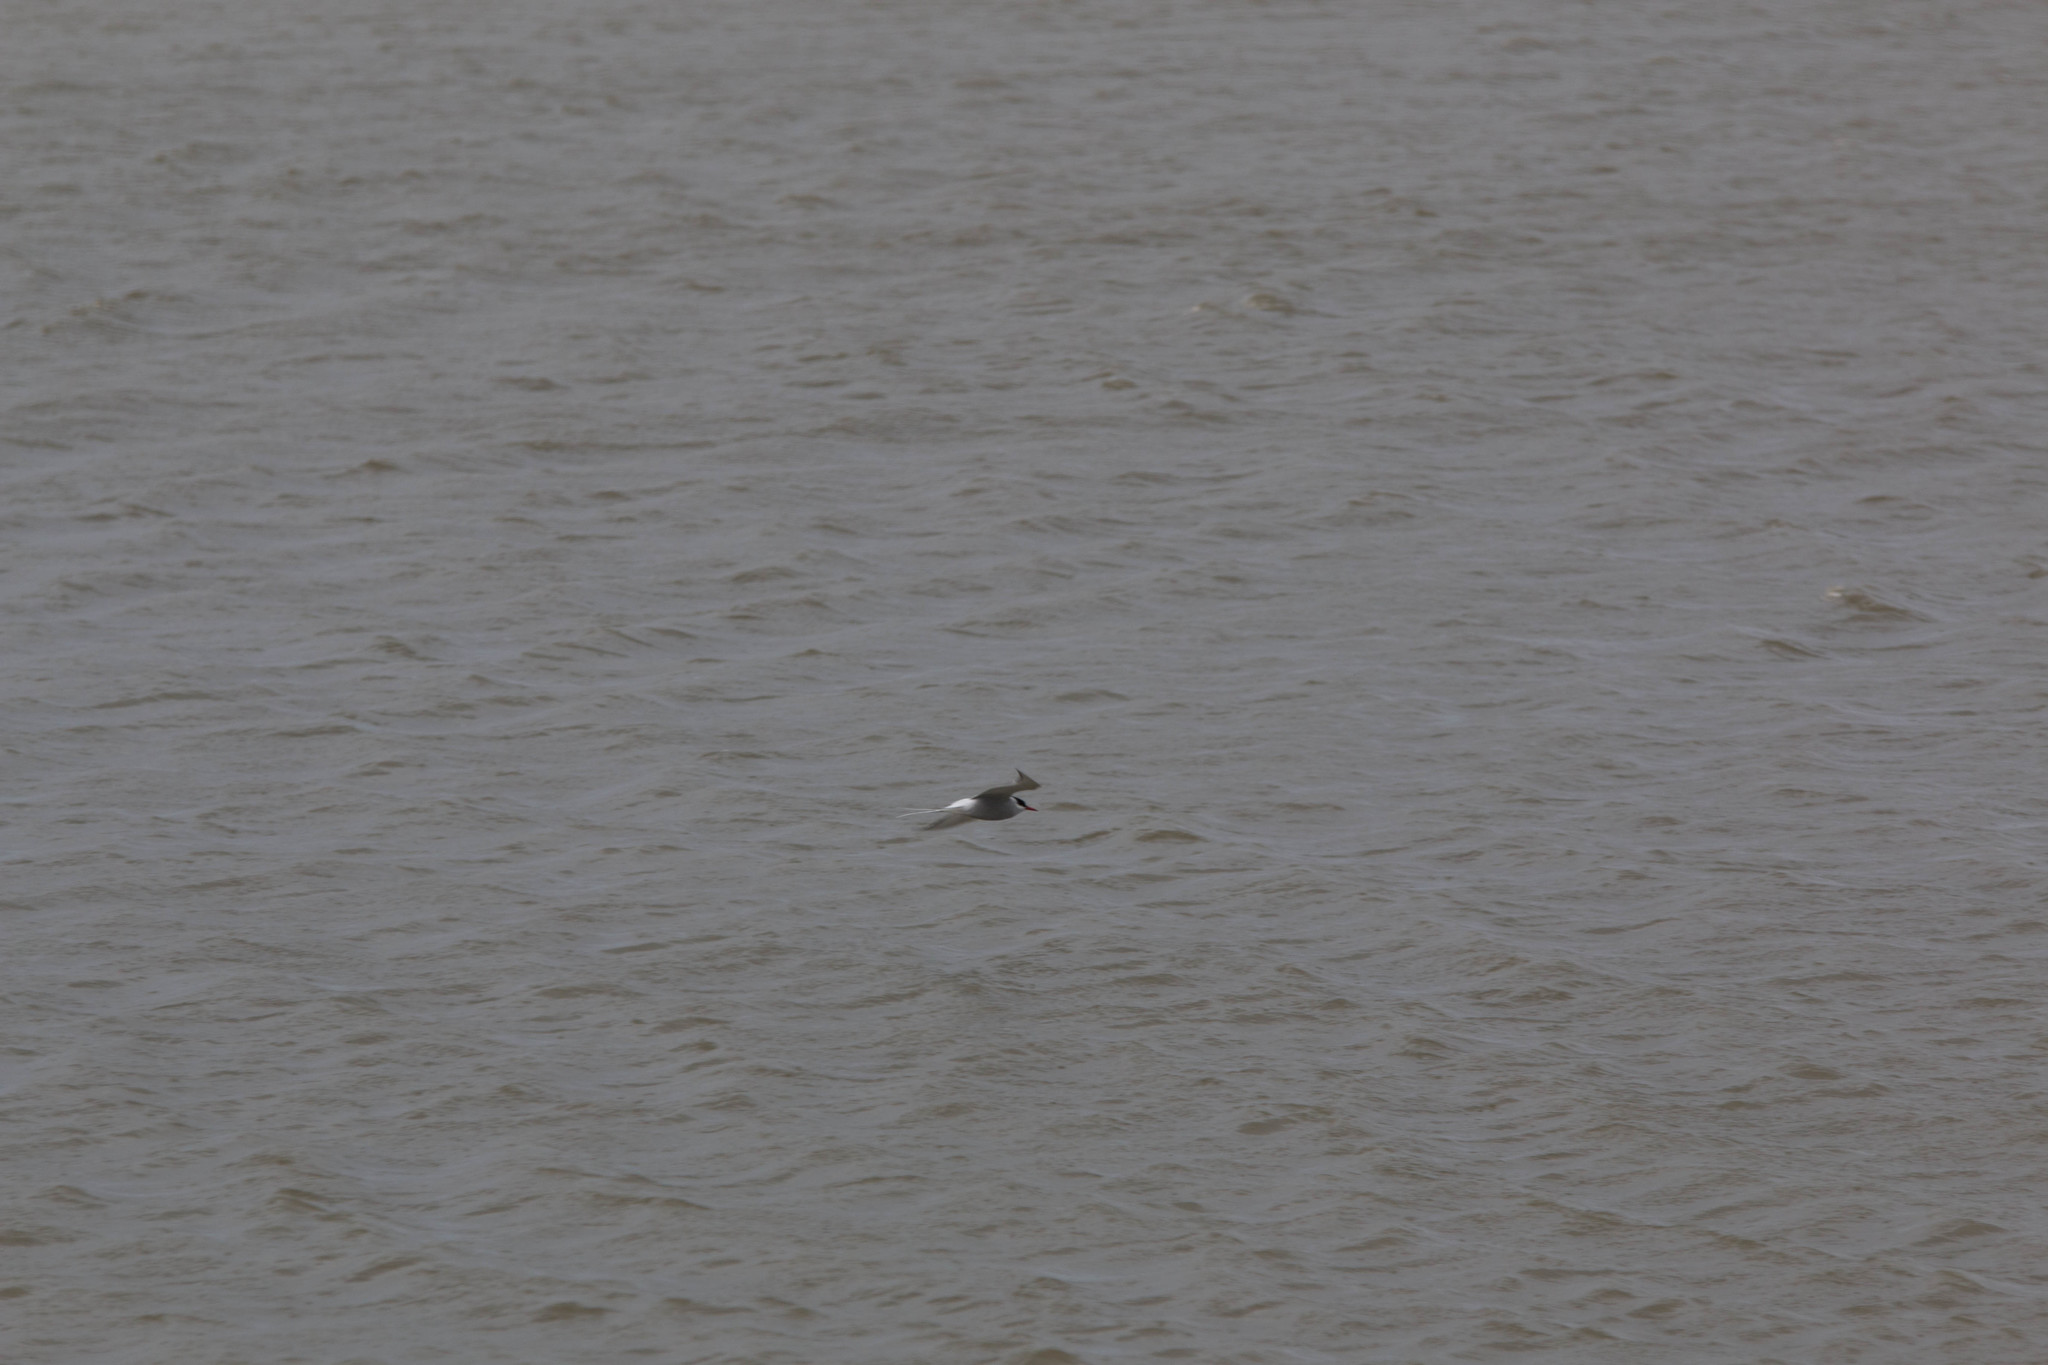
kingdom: Animalia
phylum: Chordata
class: Aves
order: Charadriiformes
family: Laridae
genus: Sterna
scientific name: Sterna paradisaea
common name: Arctic tern
